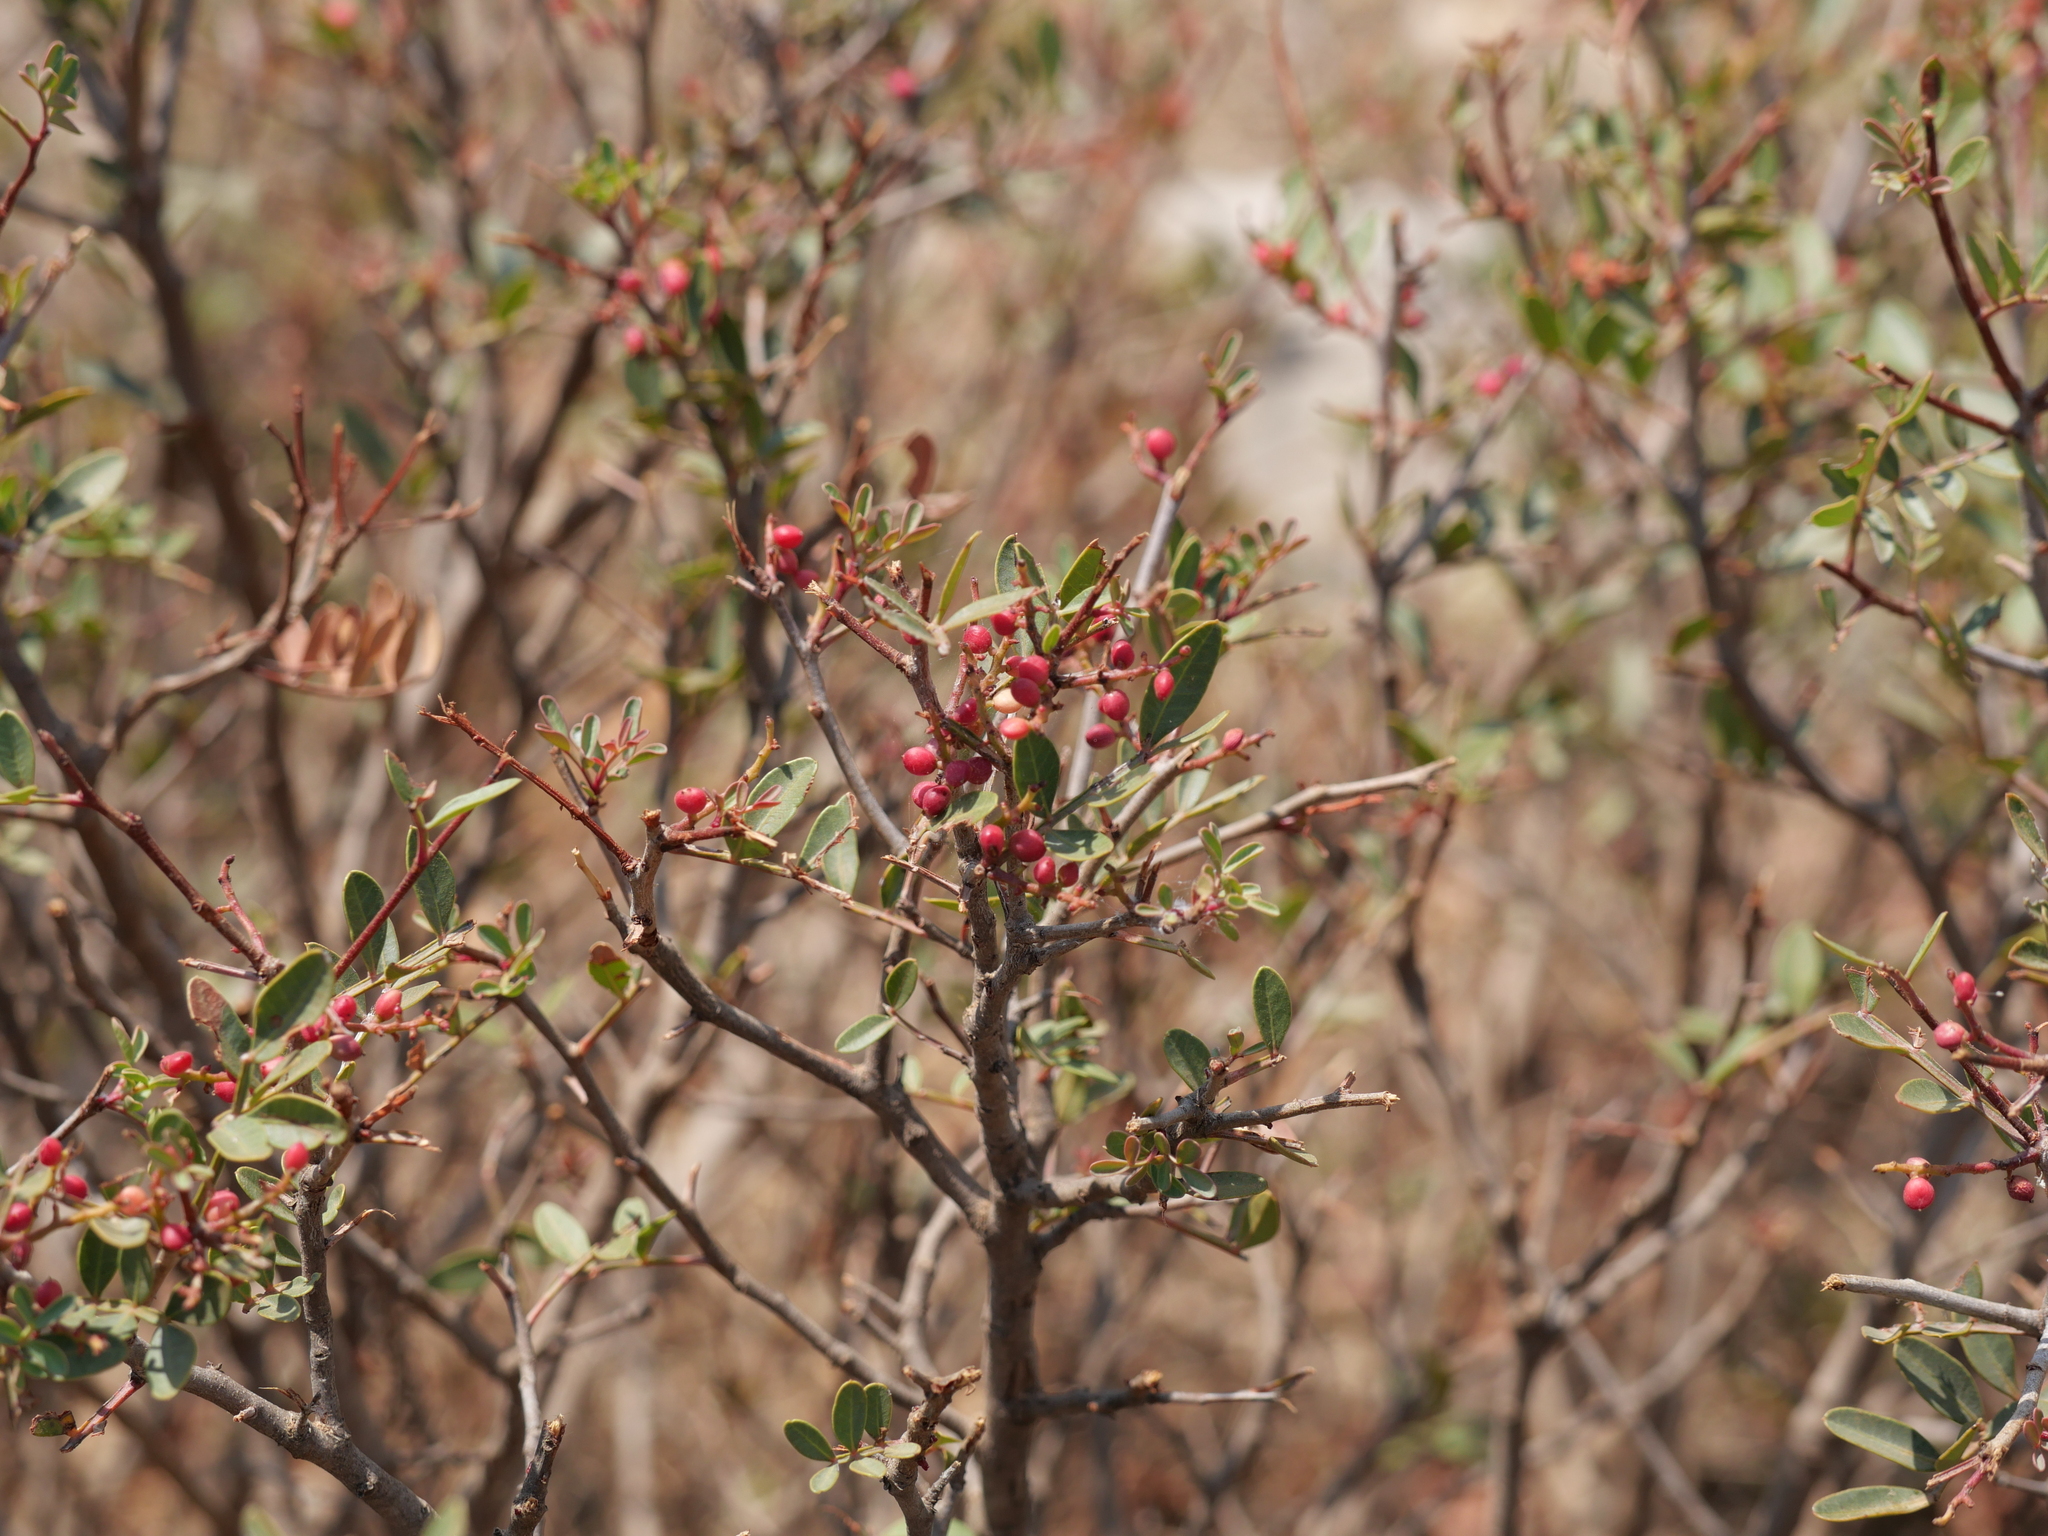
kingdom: Plantae
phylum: Tracheophyta
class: Magnoliopsida
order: Sapindales
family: Anacardiaceae
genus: Pistacia
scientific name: Pistacia lentiscus
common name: Lentisk
